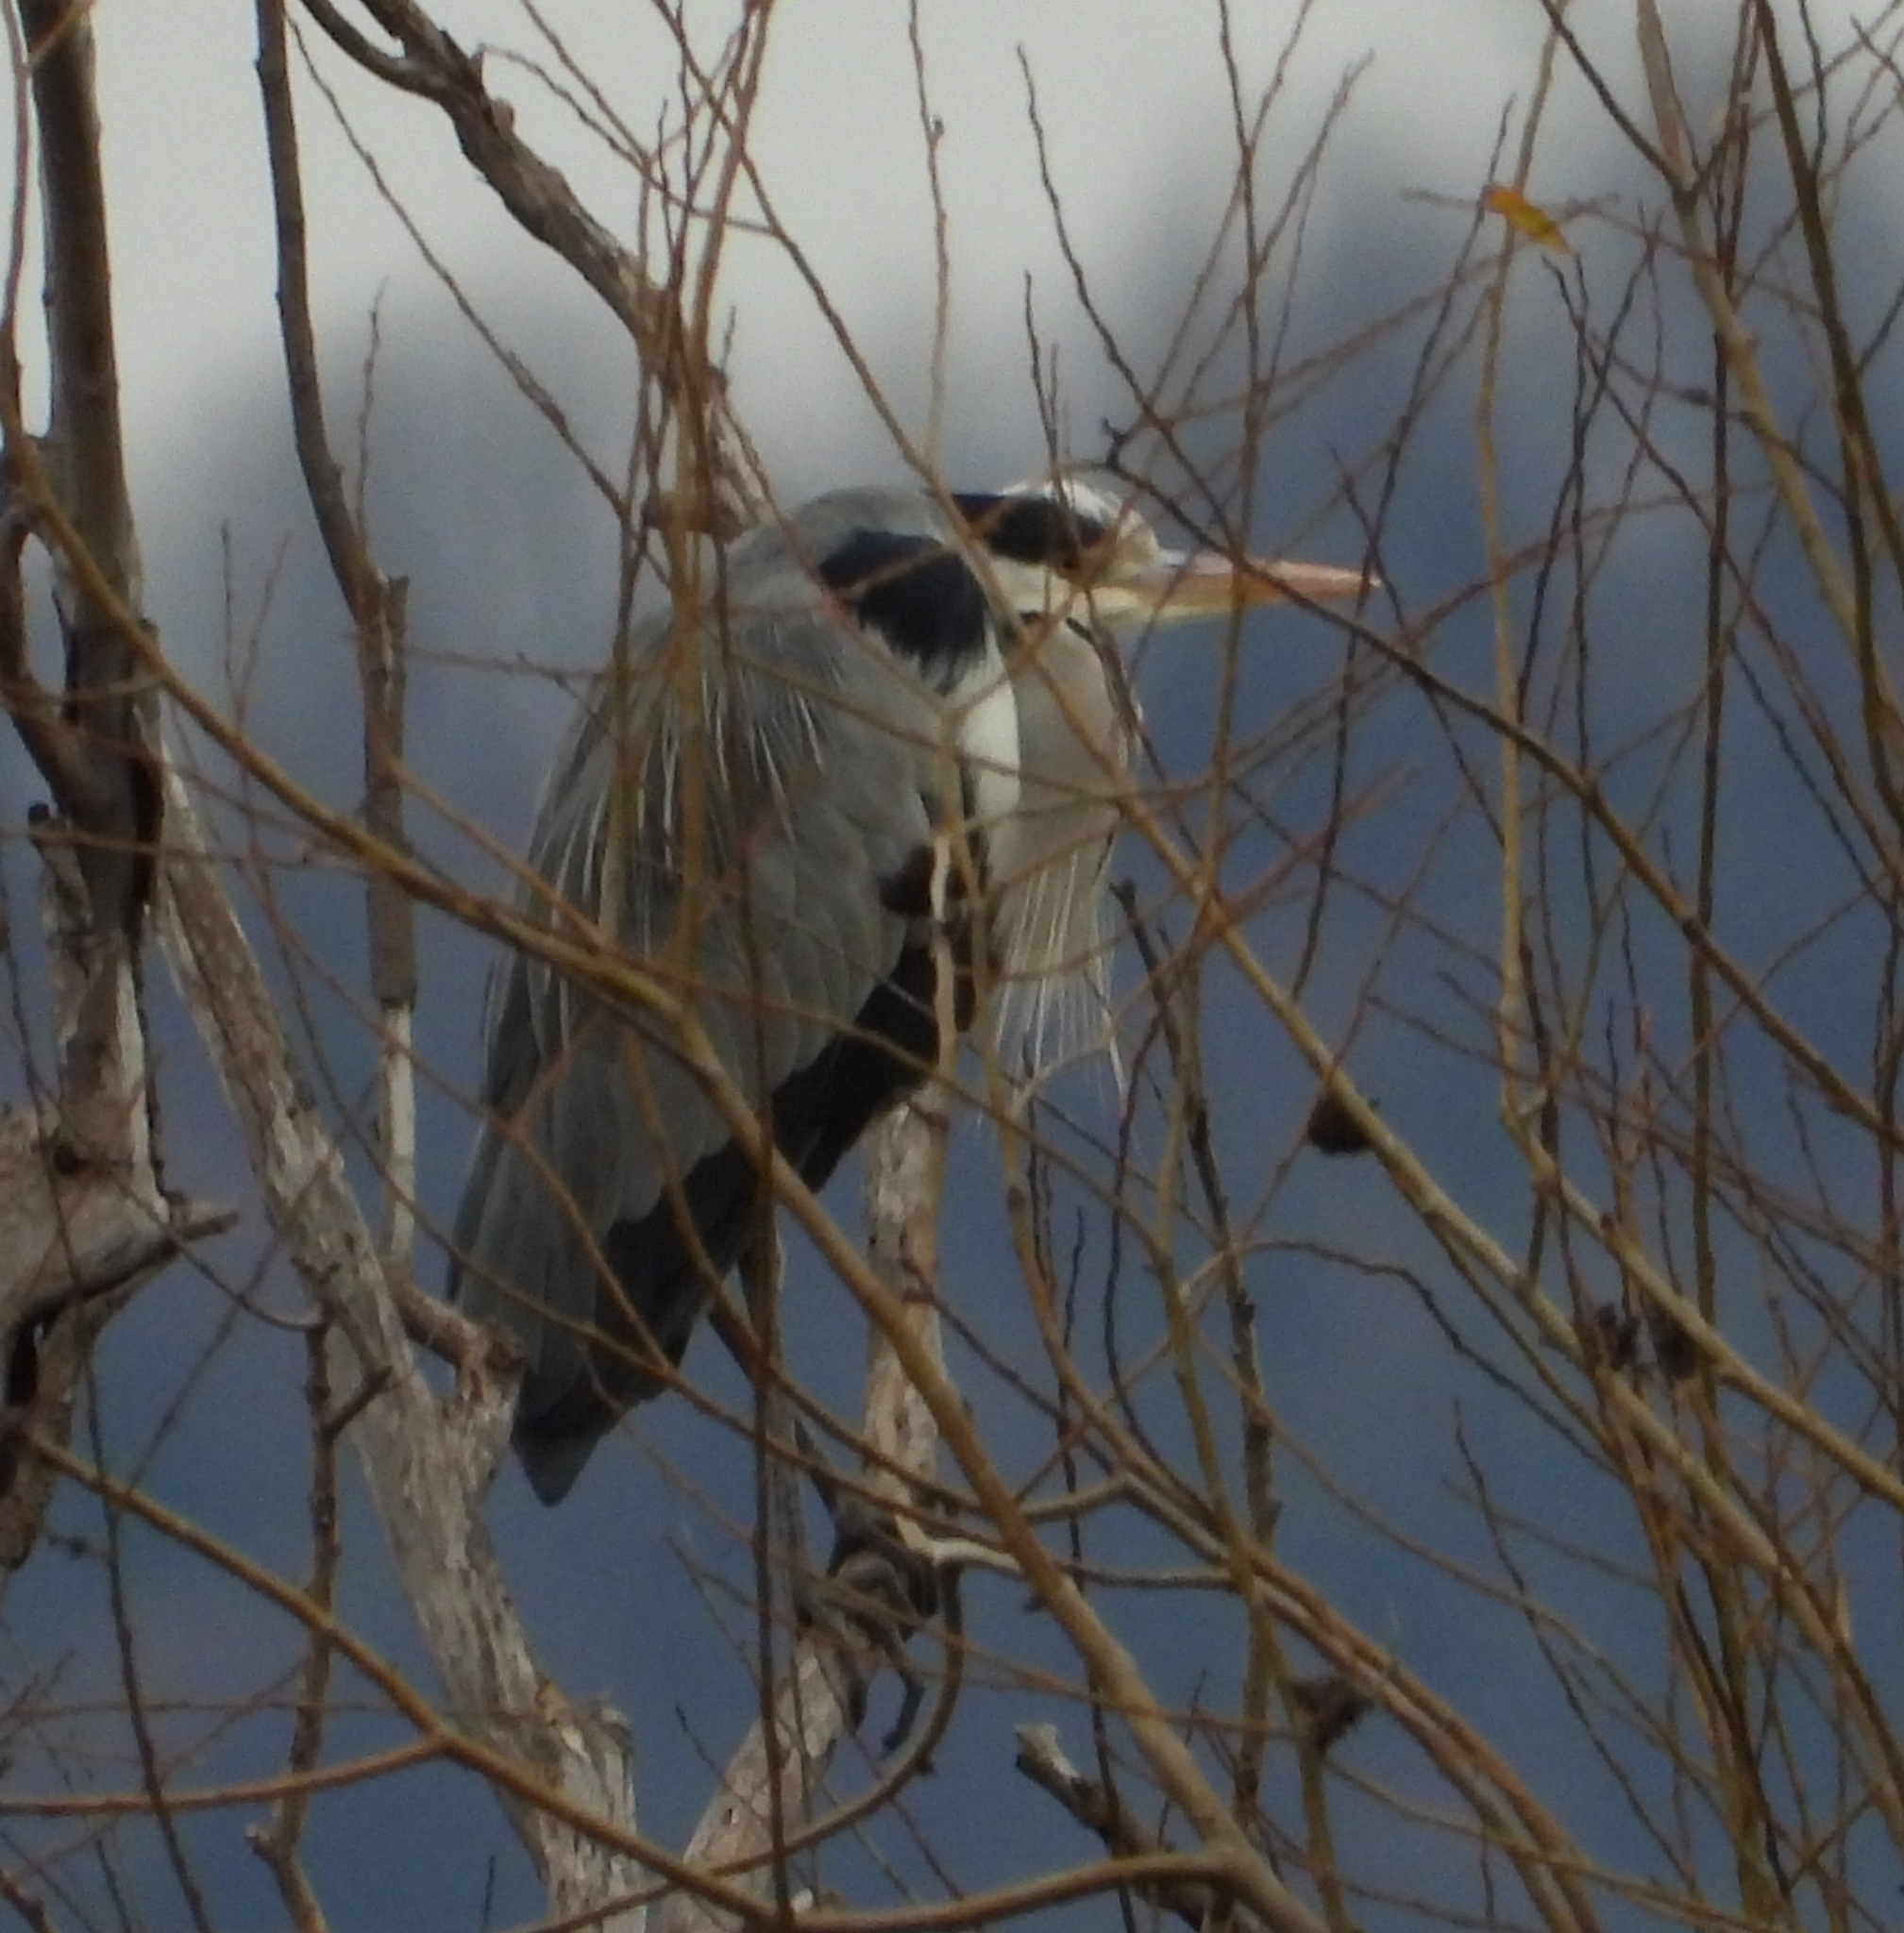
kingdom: Animalia
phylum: Chordata
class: Aves
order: Pelecaniformes
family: Ardeidae
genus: Ardea
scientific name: Ardea cinerea
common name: Grey heron
